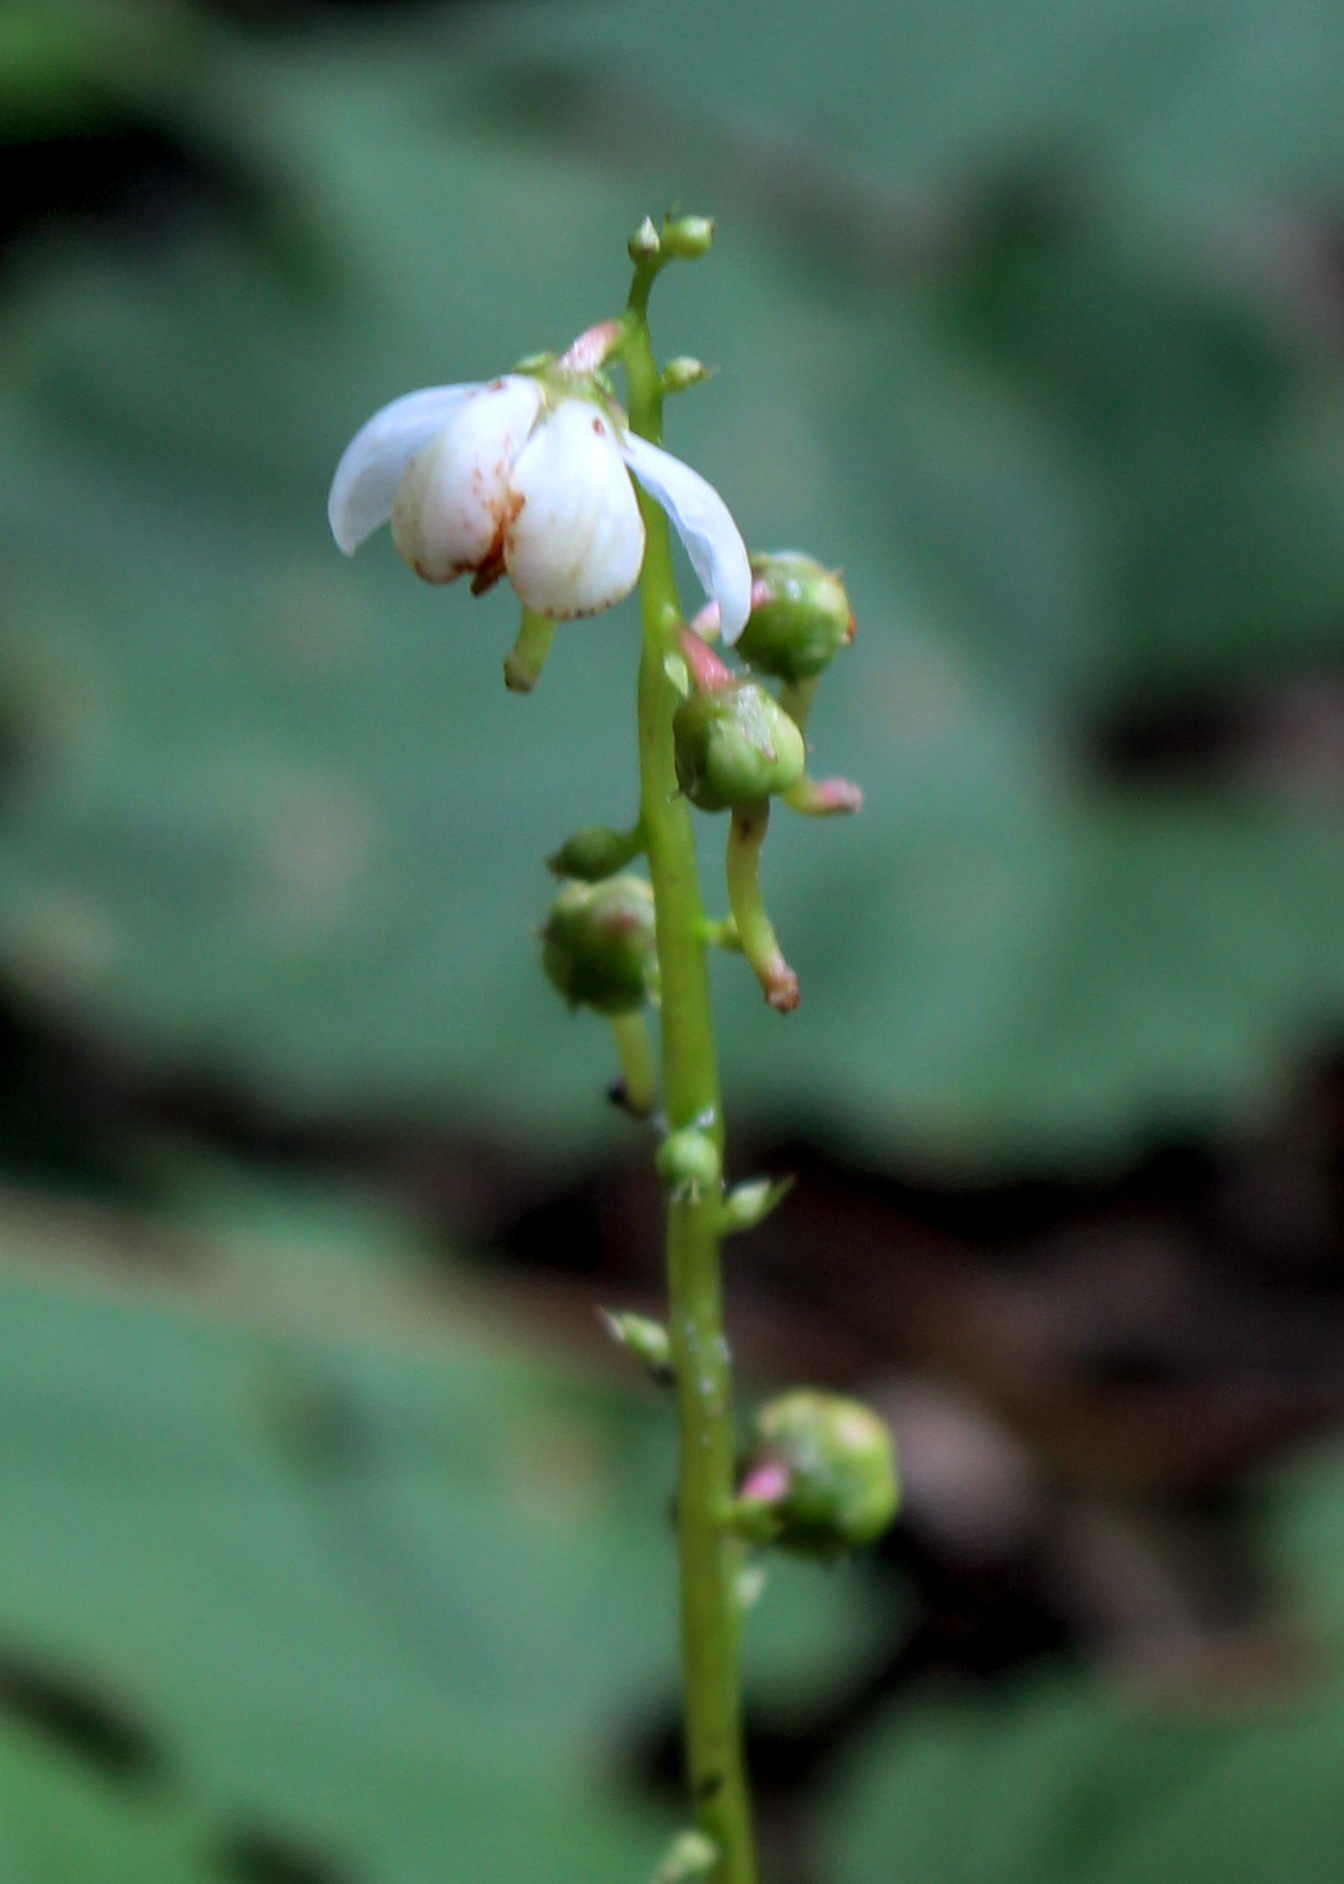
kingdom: Plantae
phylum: Tracheophyta
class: Magnoliopsida
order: Ericales
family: Ericaceae
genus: Pyrola
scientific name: Pyrola elliptica
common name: Shinleaf
